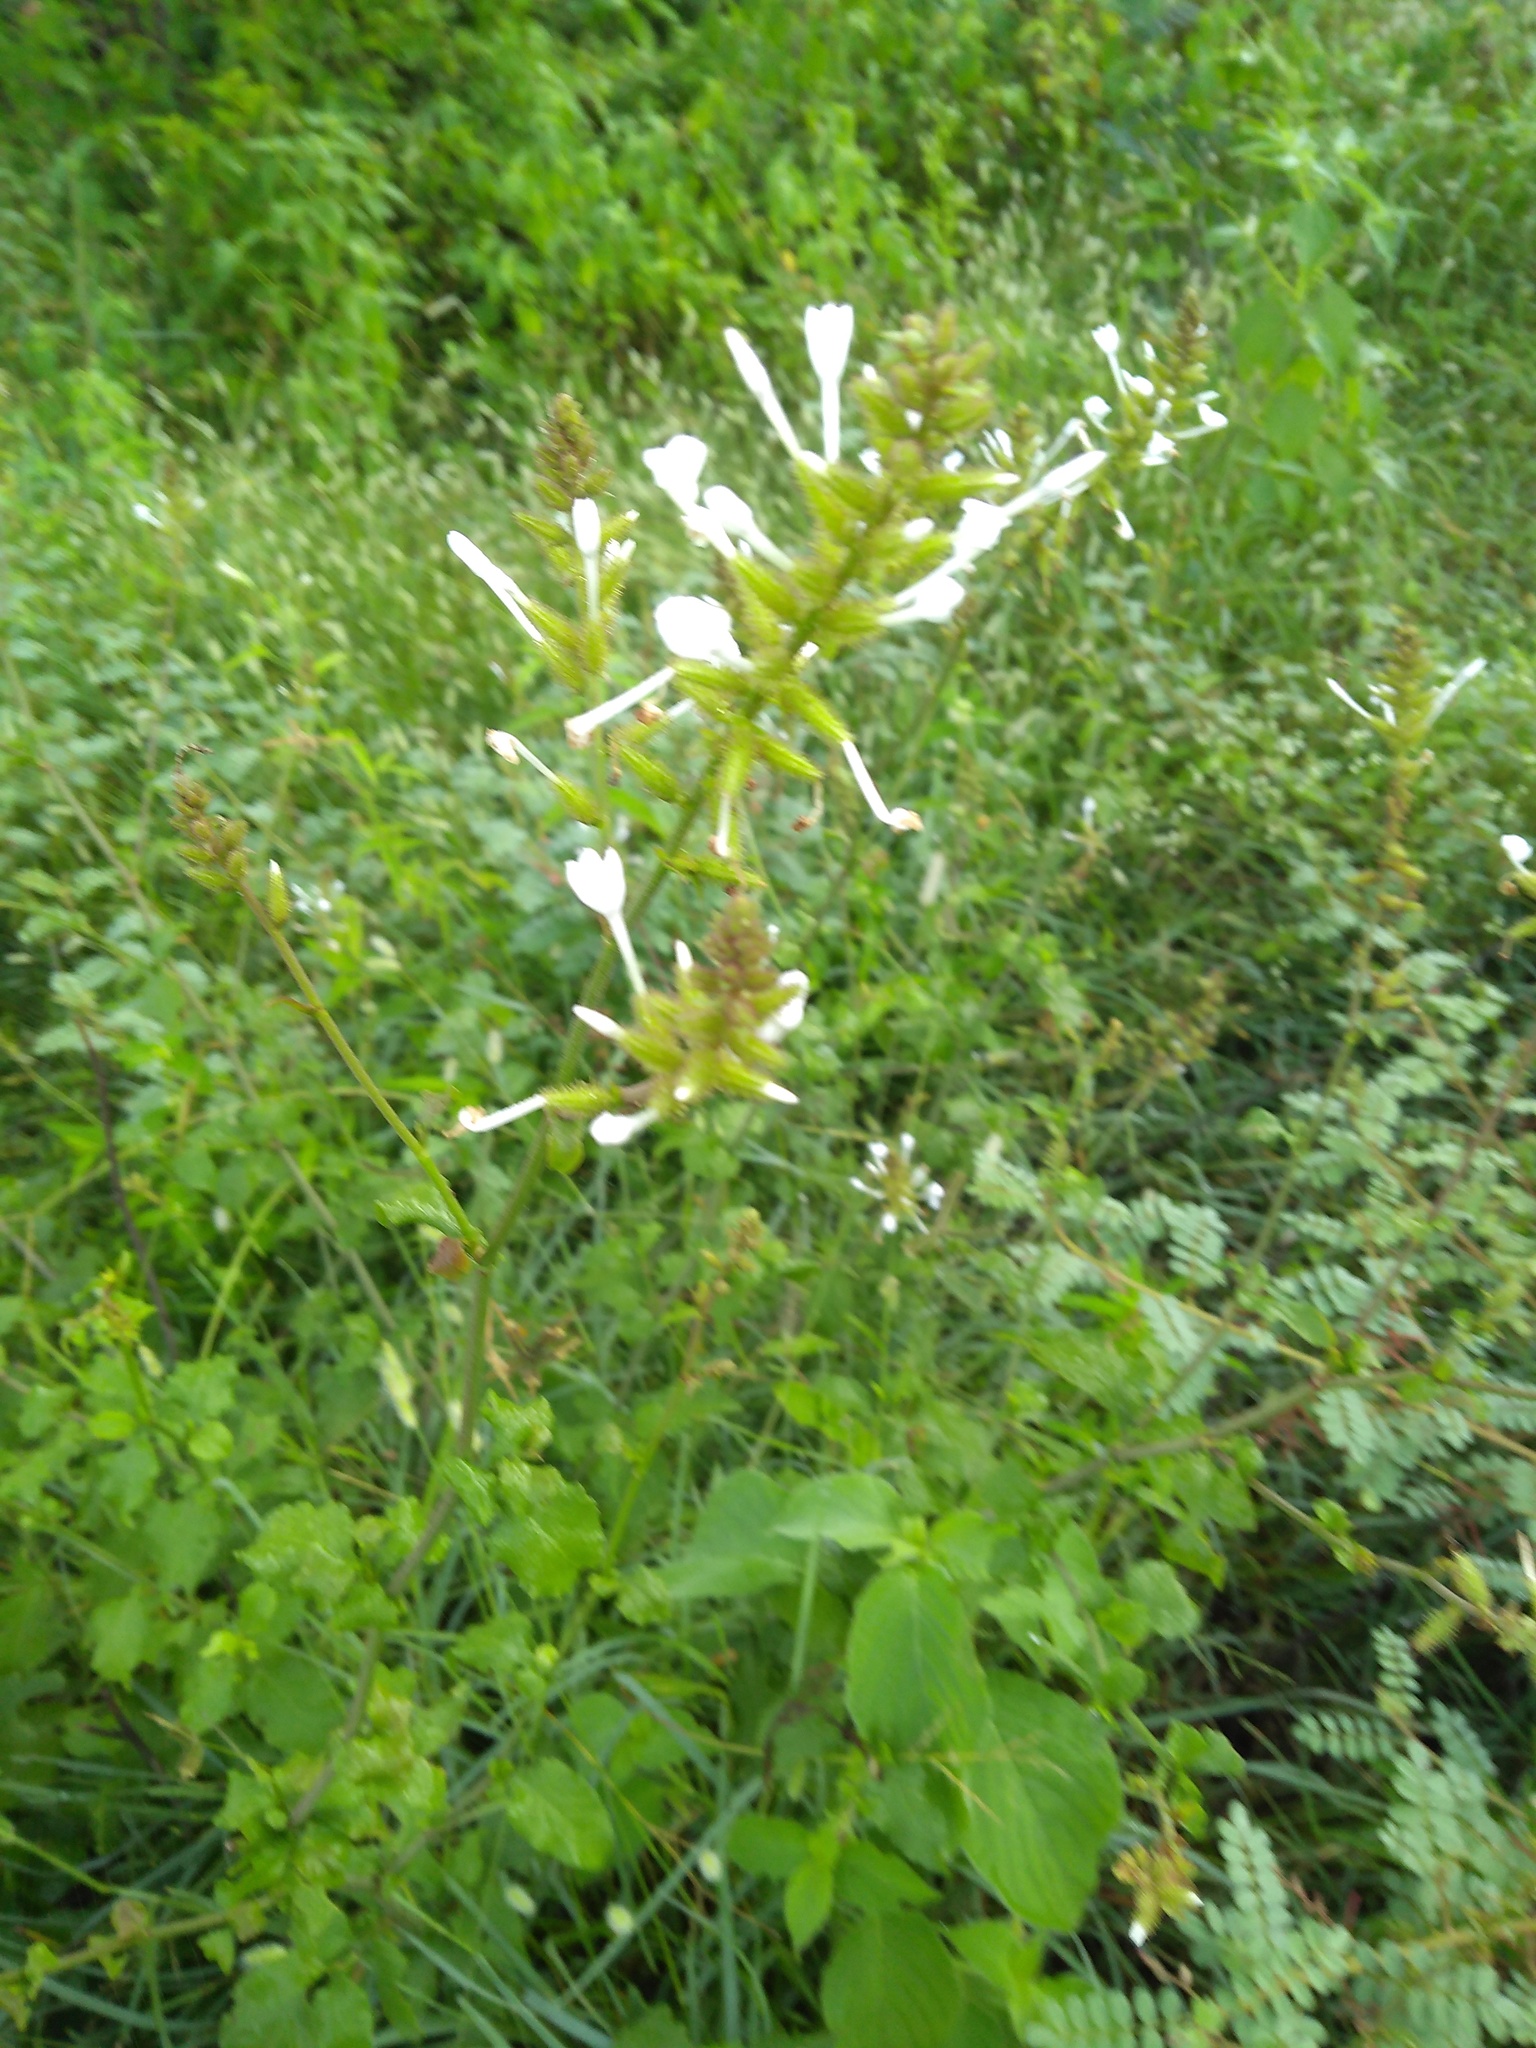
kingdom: Plantae
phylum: Tracheophyta
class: Magnoliopsida
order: Caryophyllales
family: Plumbaginaceae
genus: Plumbago
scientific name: Plumbago zeylanica
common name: Doctorbush
